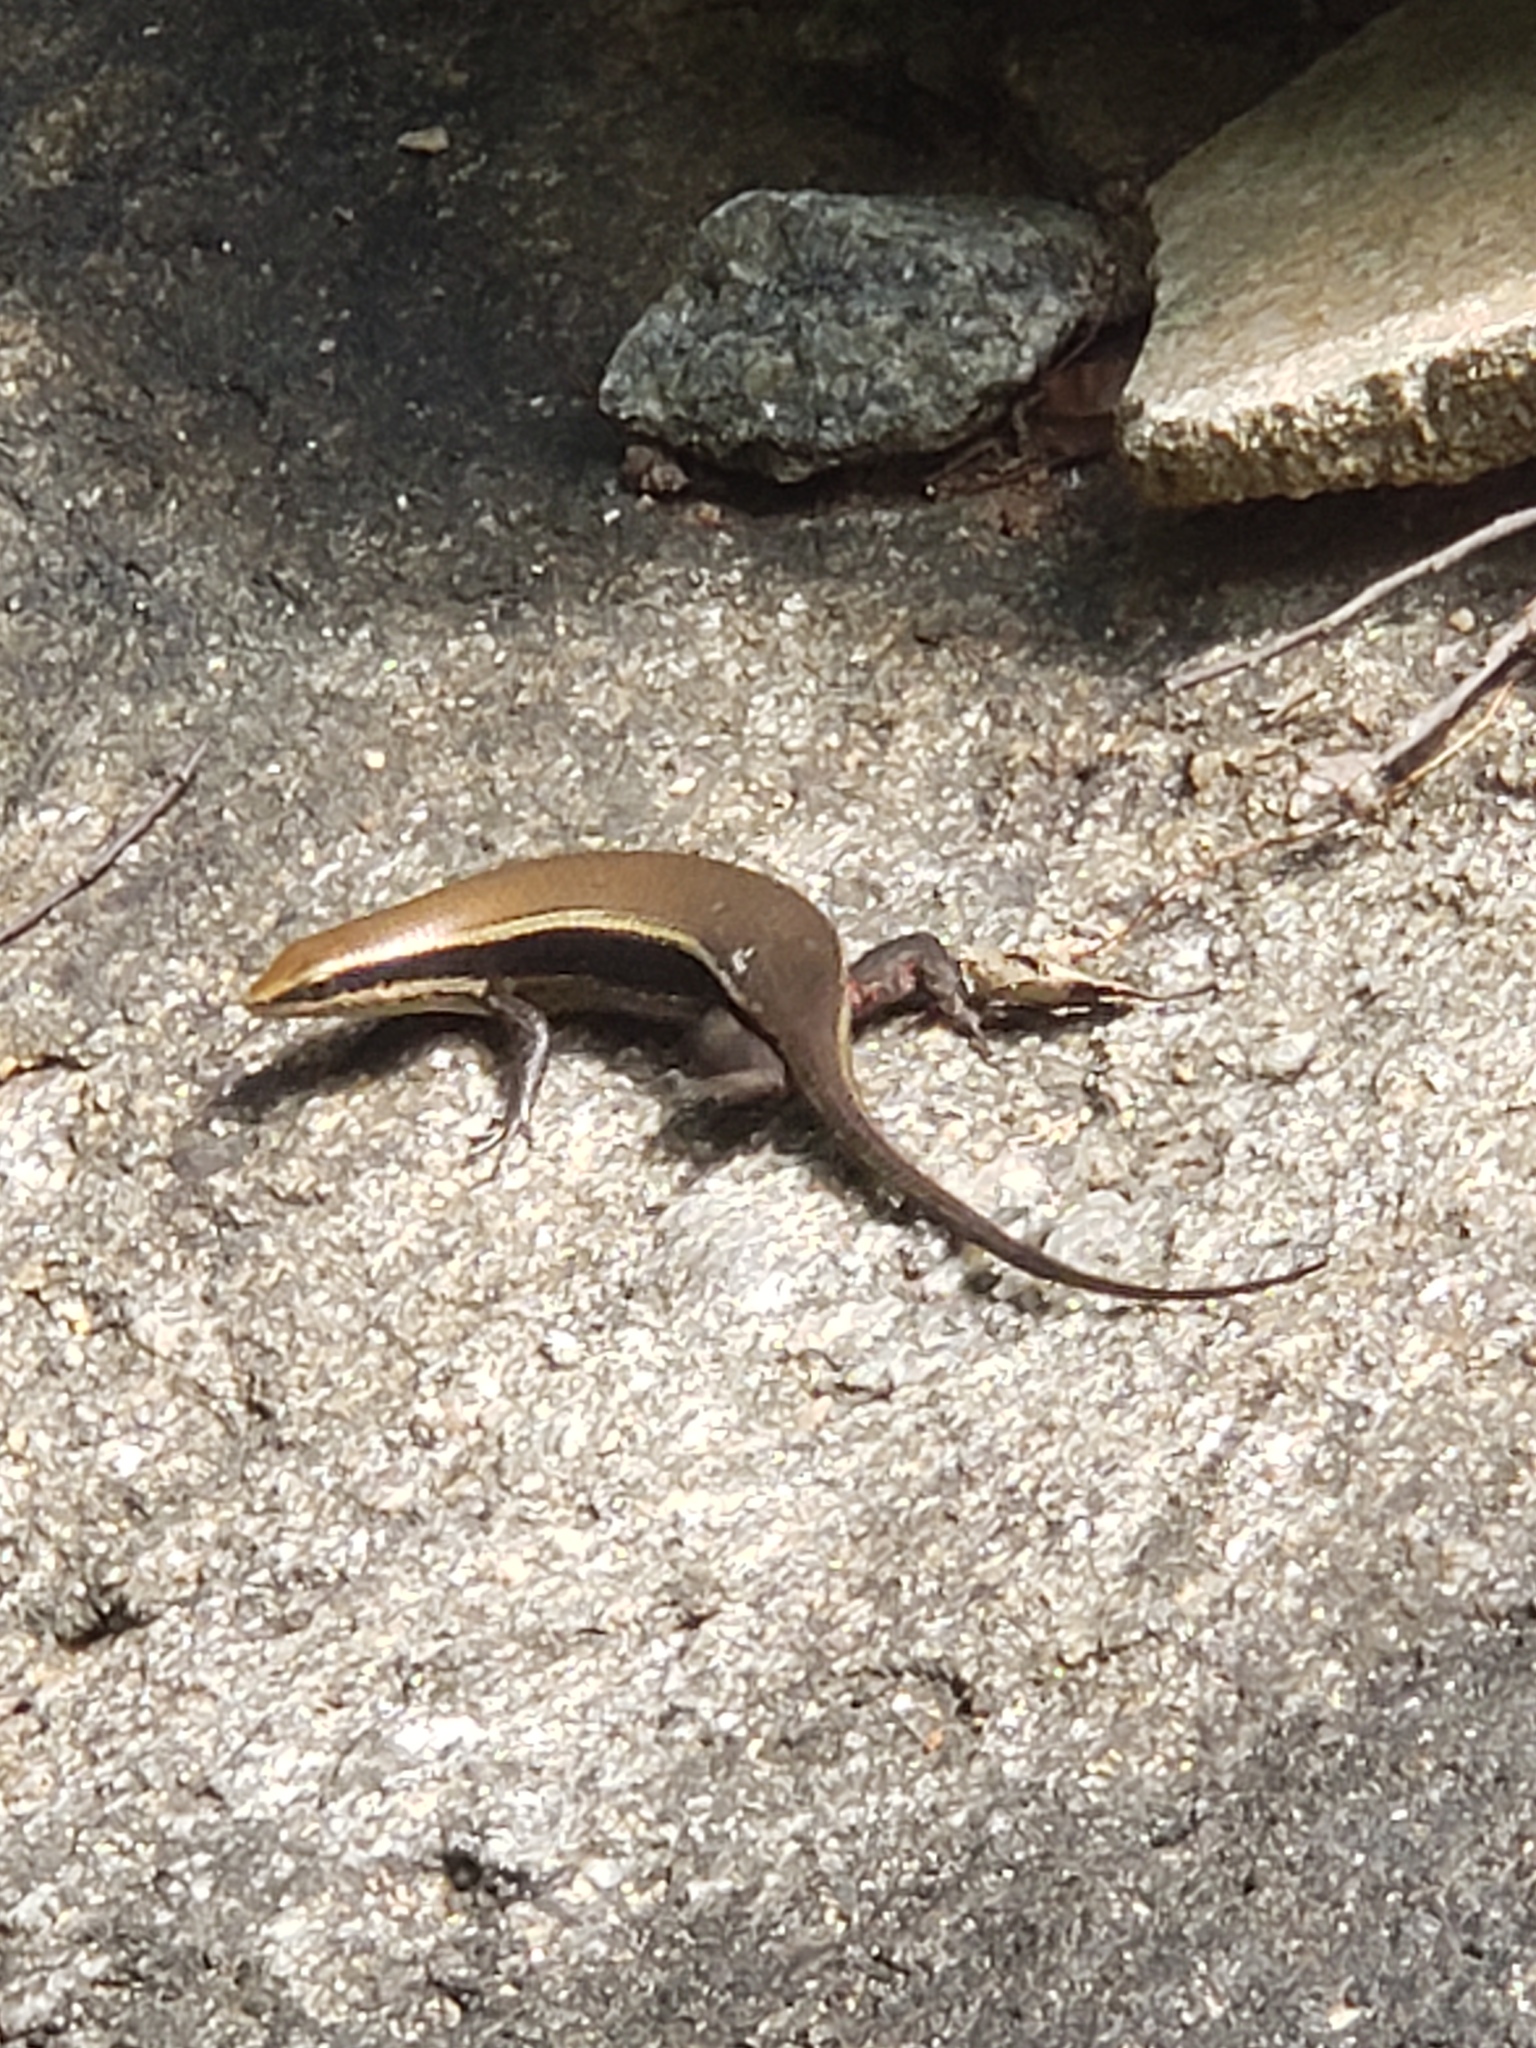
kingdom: Animalia
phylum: Chordata
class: Squamata
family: Scincidae
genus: Eutropis
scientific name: Eutropis madaraszi
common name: Sri lanka bronze skink
